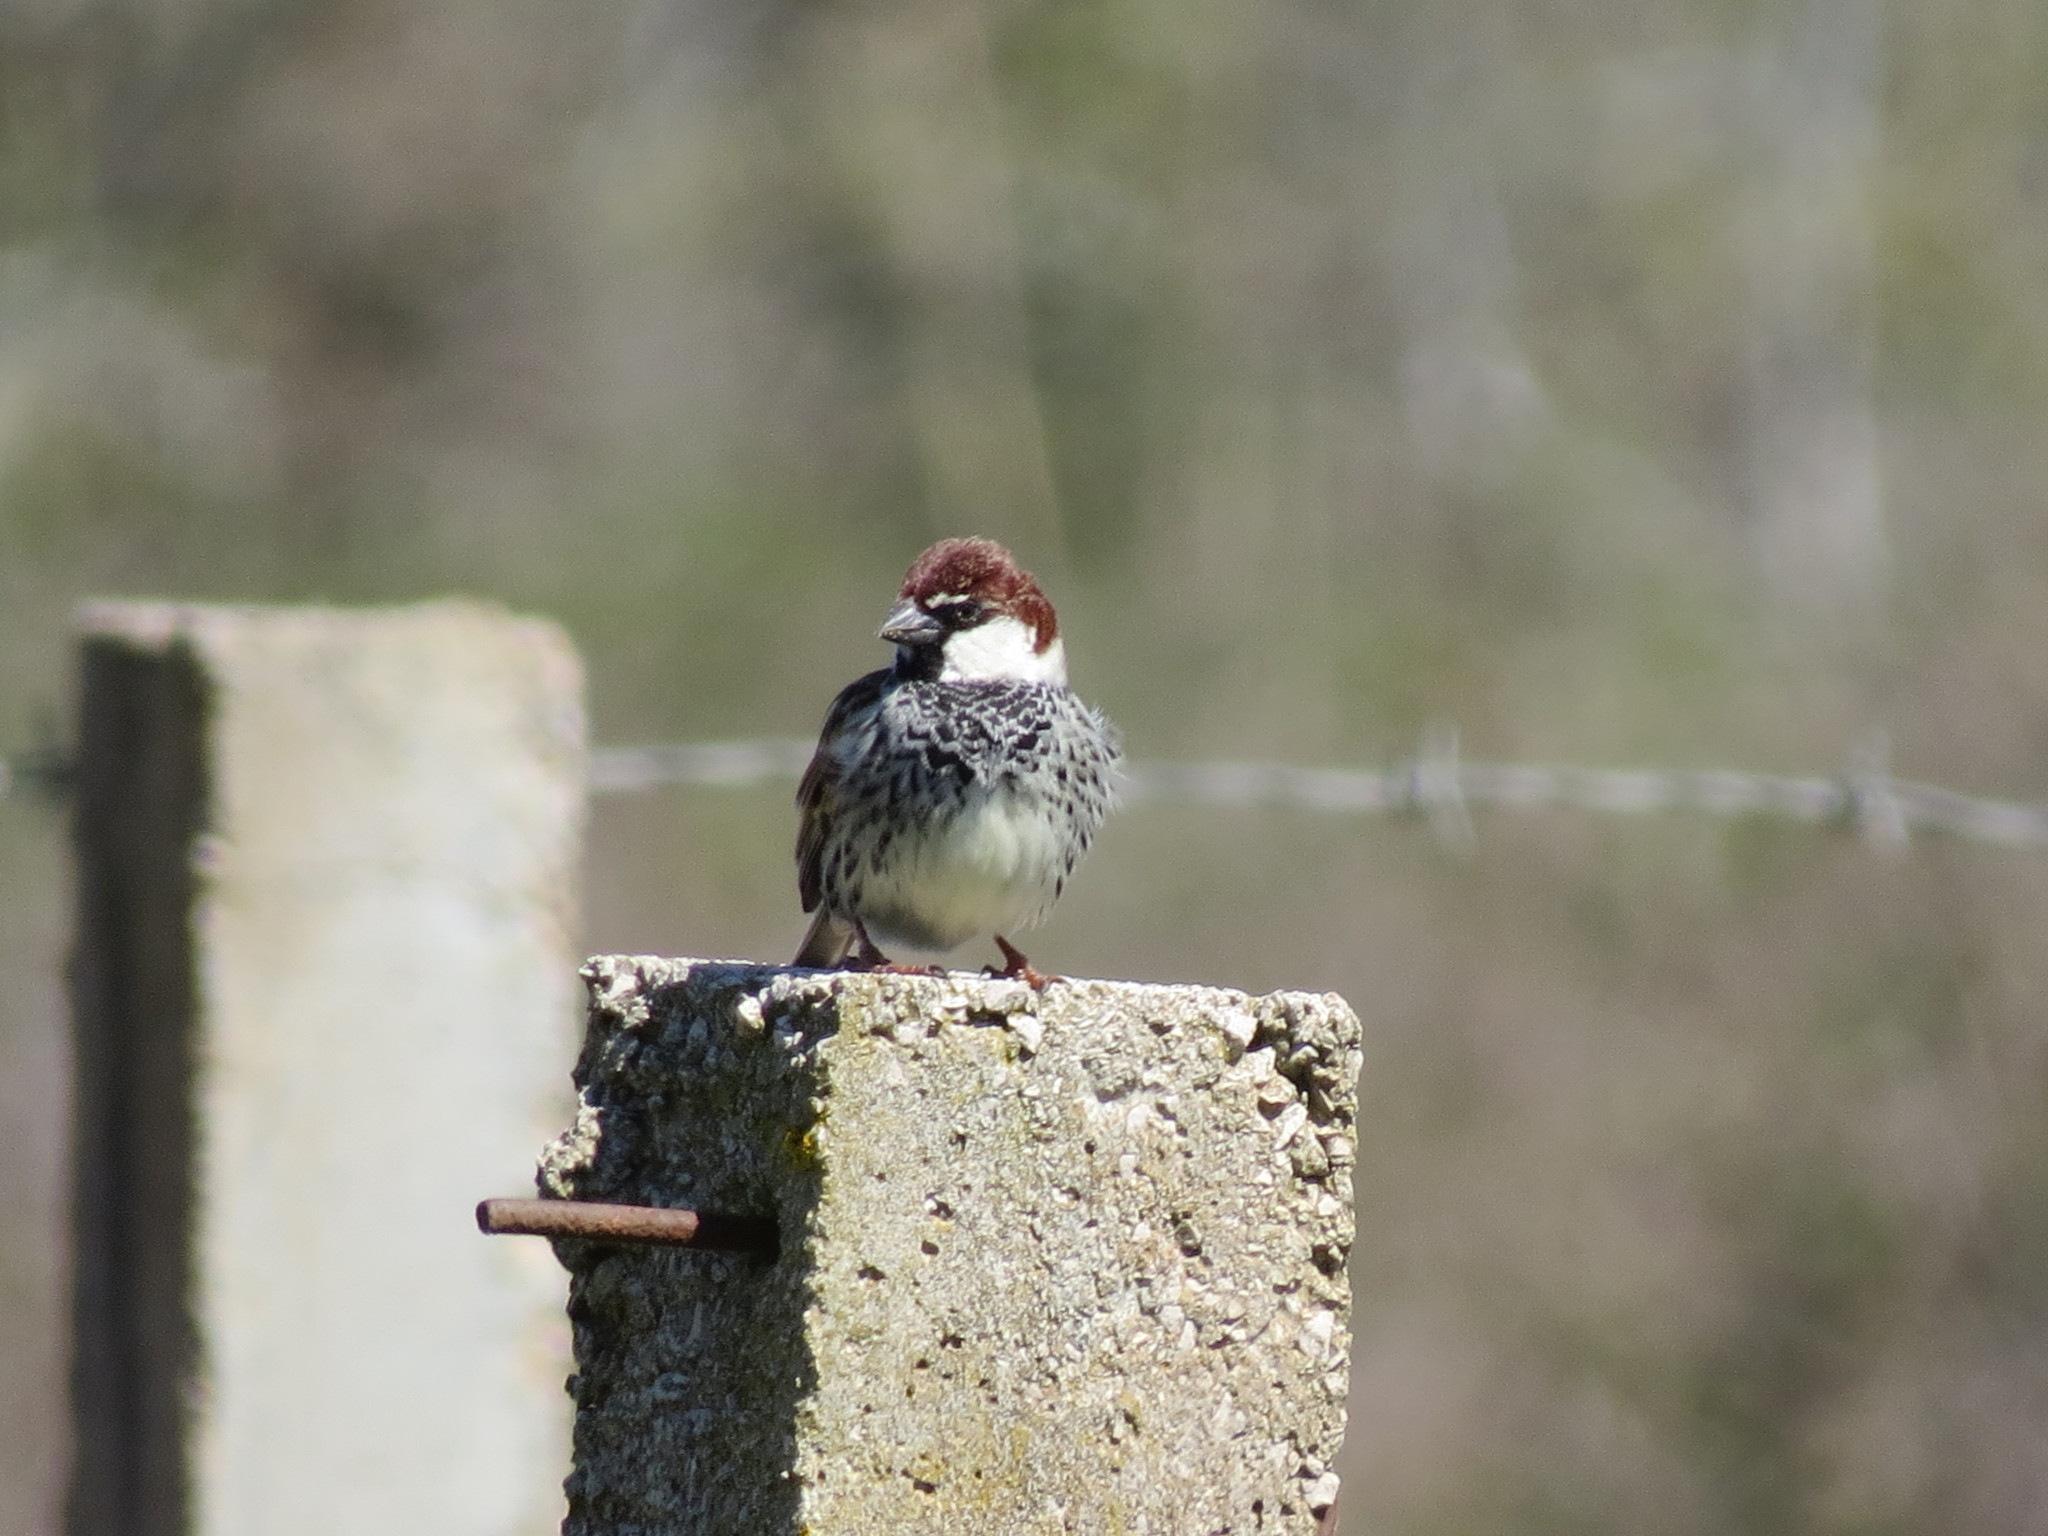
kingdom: Animalia
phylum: Chordata
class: Aves
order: Passeriformes
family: Passeridae
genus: Passer
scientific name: Passer hispaniolensis
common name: Spanish sparrow
